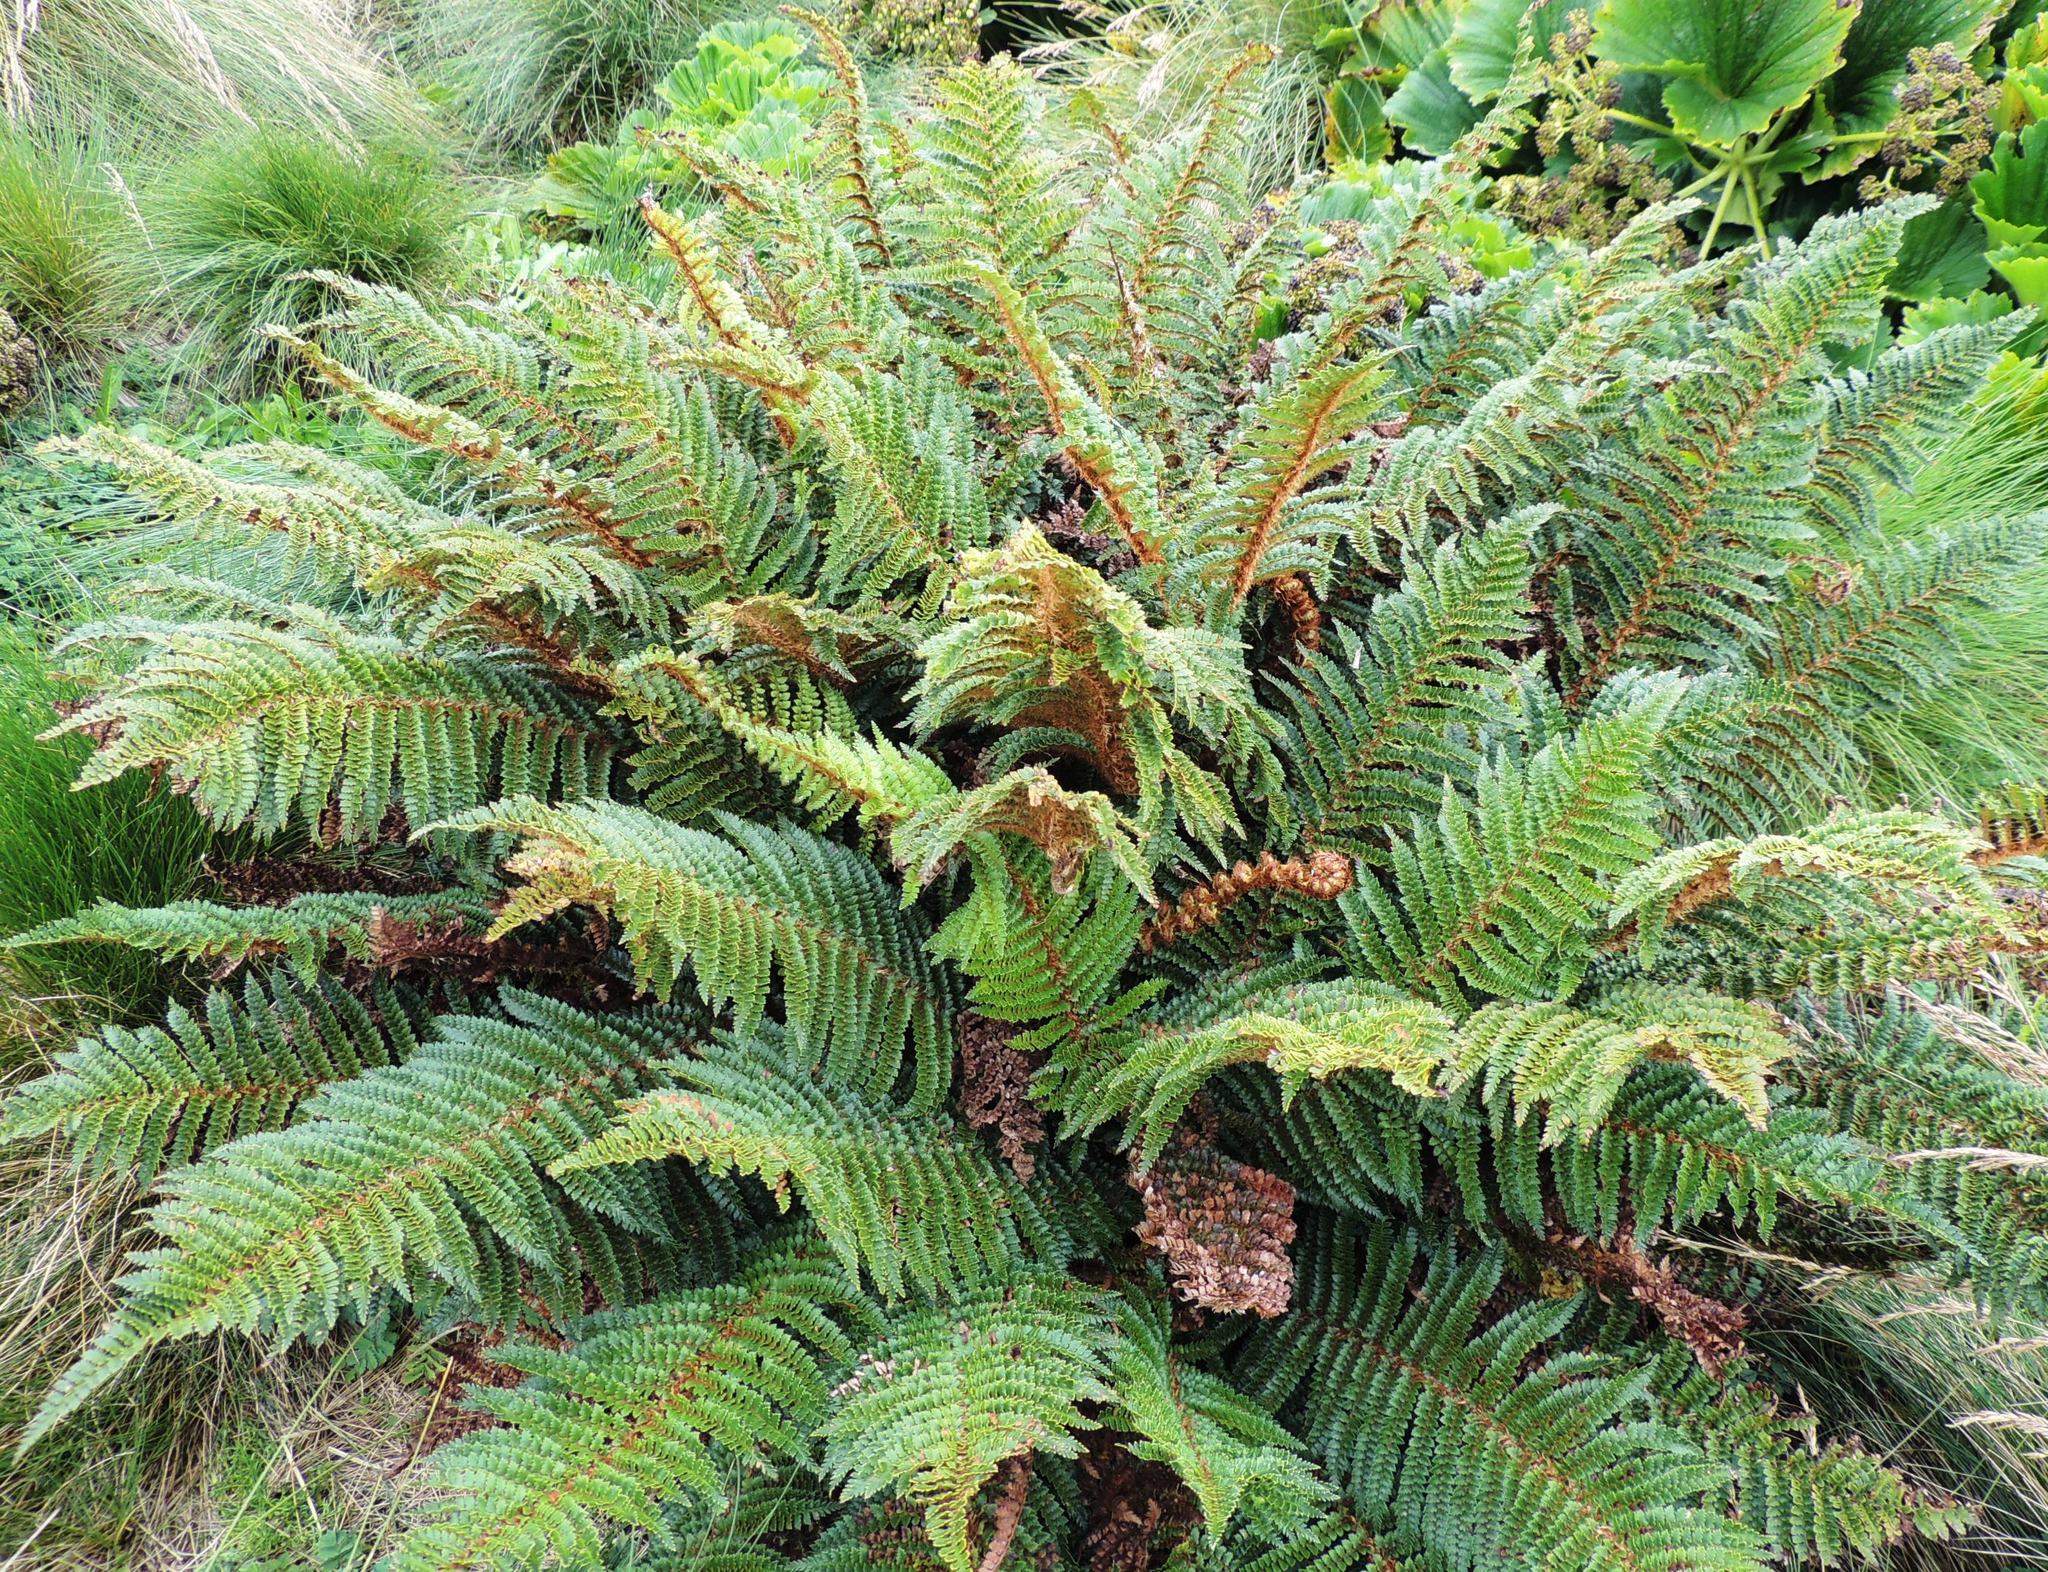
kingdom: Plantae
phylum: Tracheophyta
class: Polypodiopsida
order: Polypodiales
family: Dryopteridaceae
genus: Polystichum
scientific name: Polystichum vestitum
